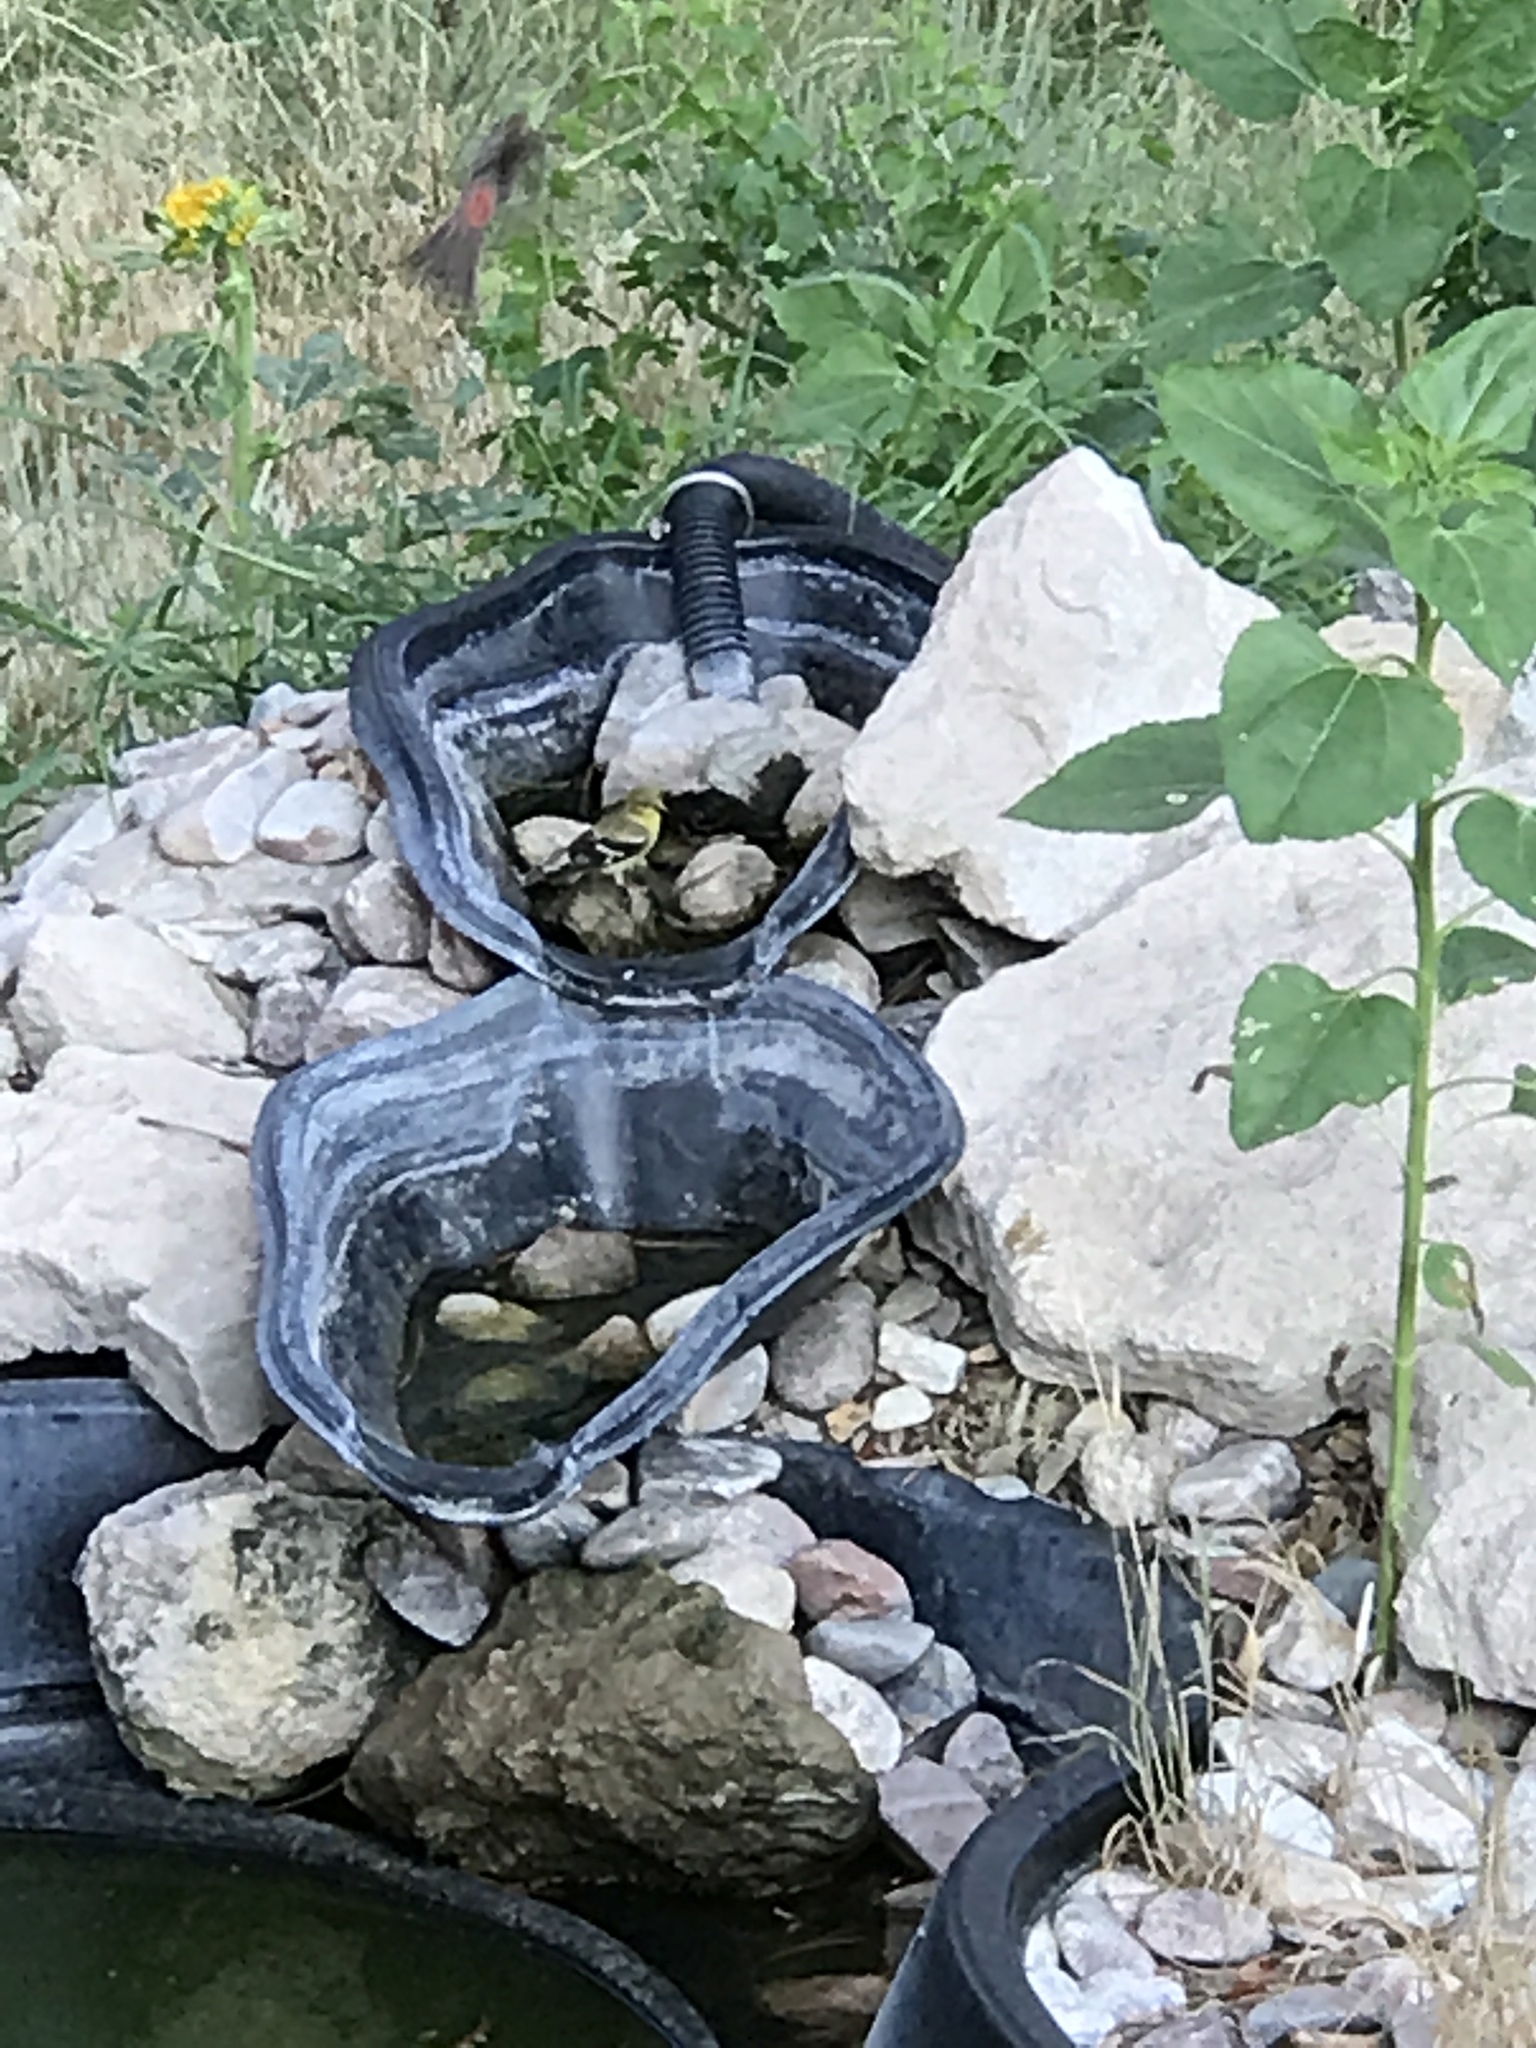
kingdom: Animalia
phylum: Chordata
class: Aves
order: Passeriformes
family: Fringillidae
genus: Spinus
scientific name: Spinus tristis
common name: American goldfinch
